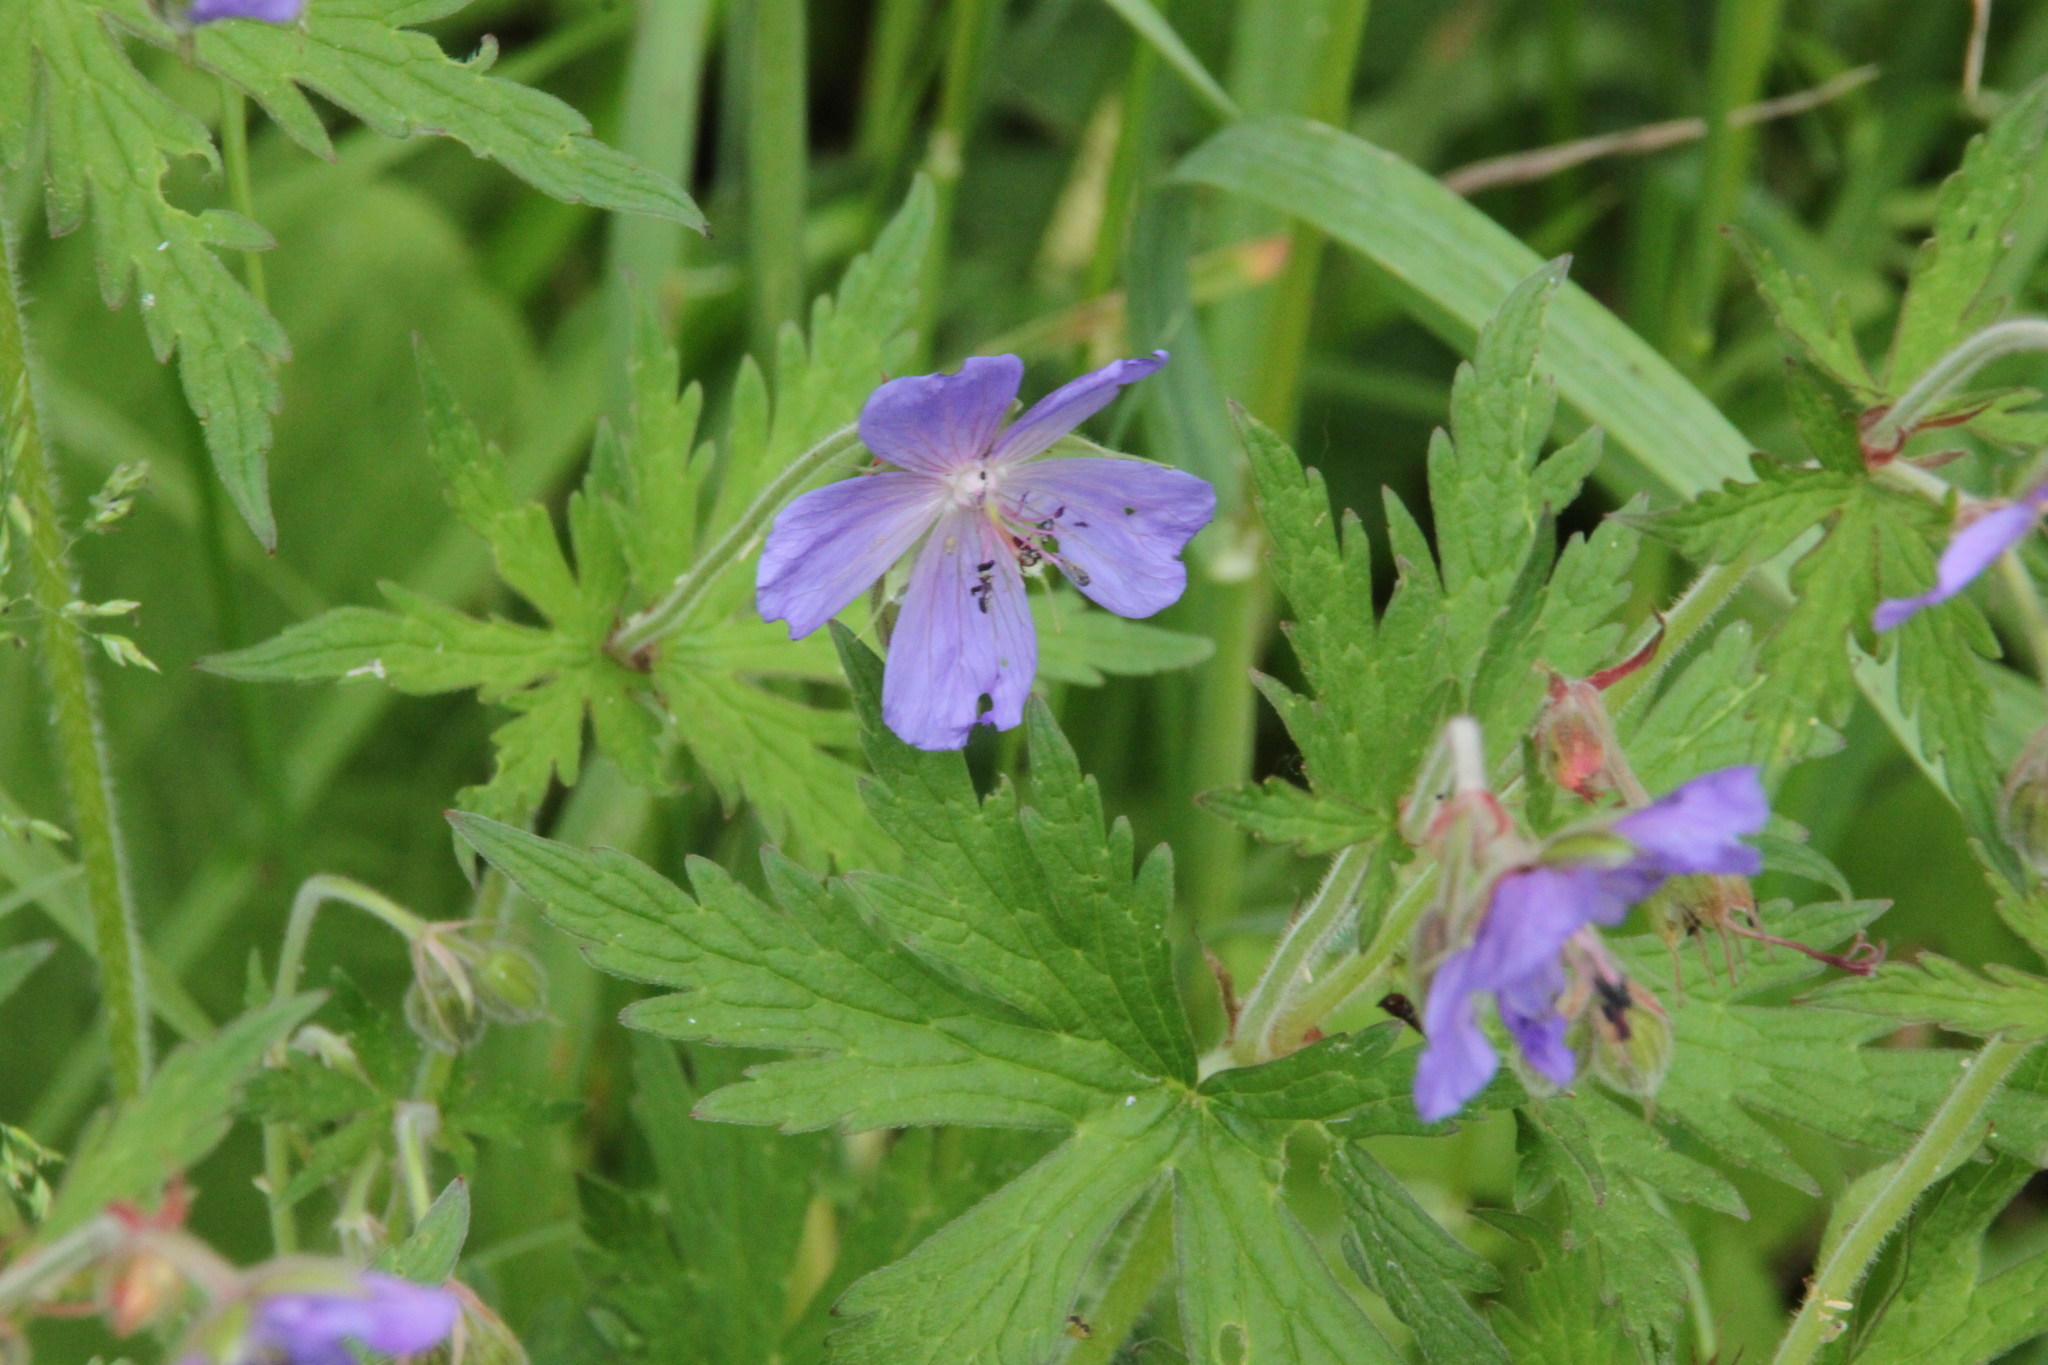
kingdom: Plantae
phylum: Tracheophyta
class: Magnoliopsida
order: Geraniales
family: Geraniaceae
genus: Geranium
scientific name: Geranium pratense
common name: Meadow crane's-bill
